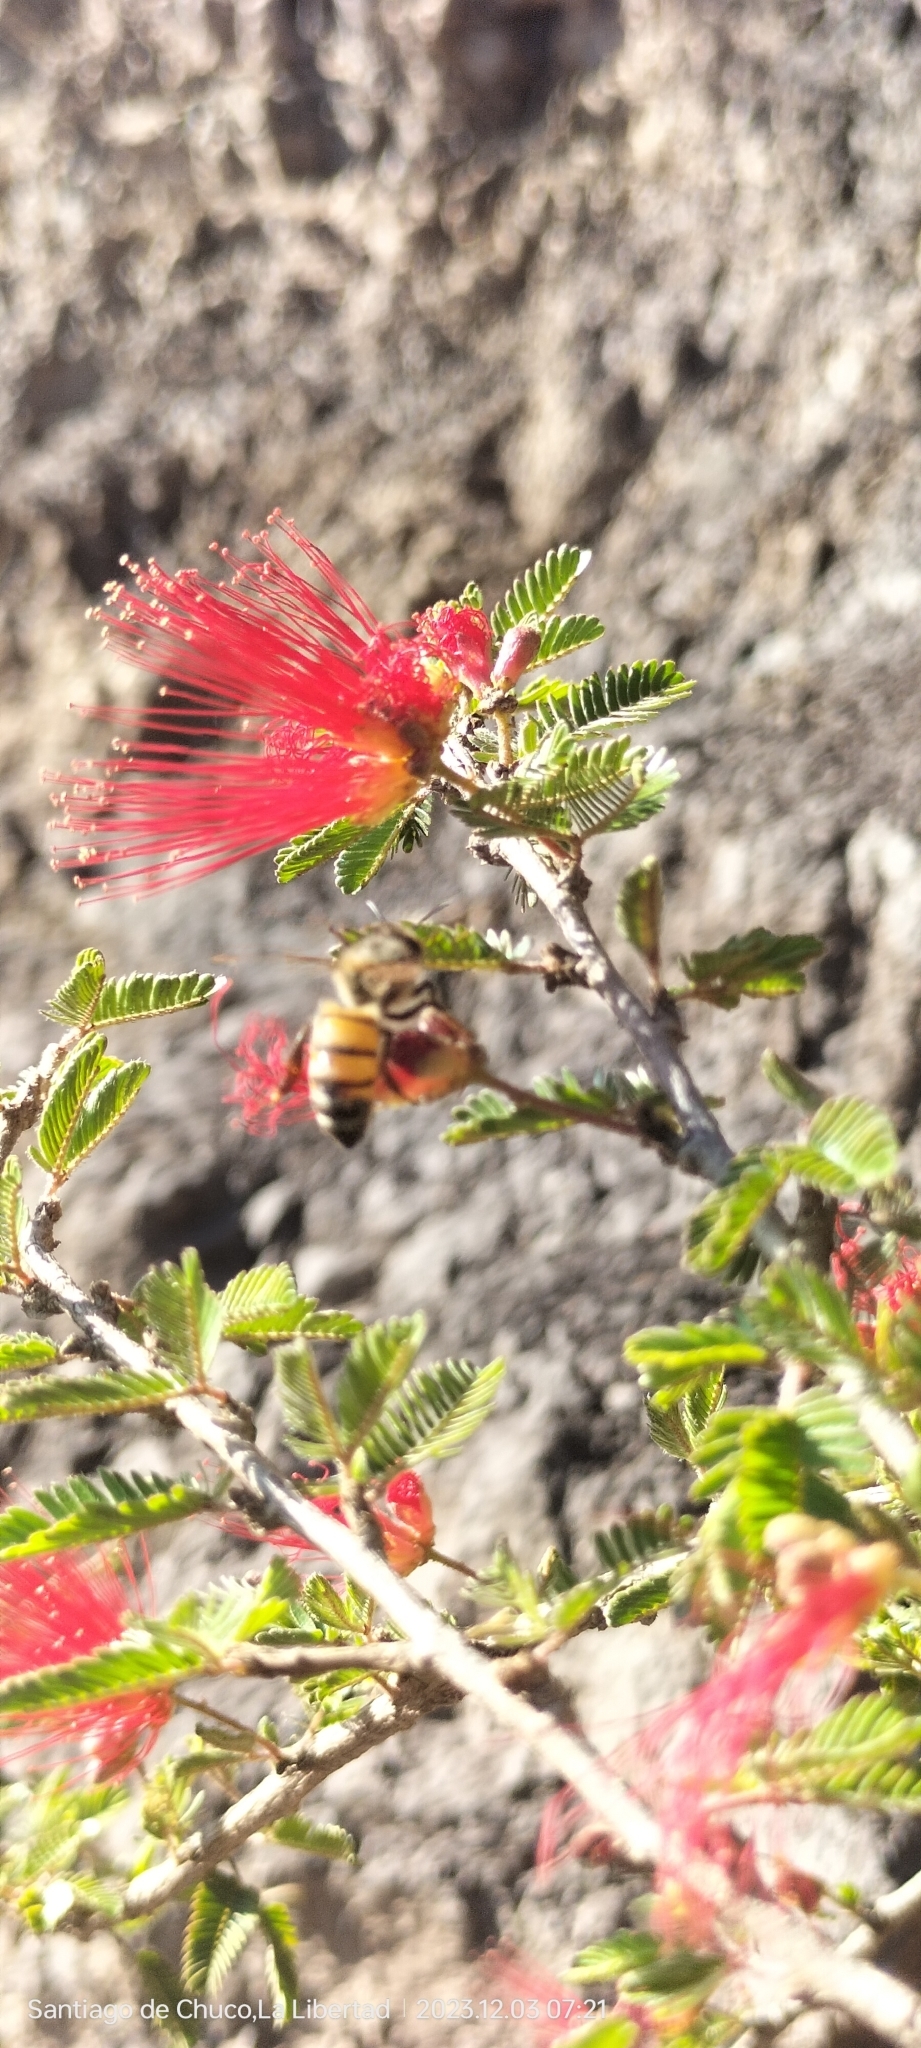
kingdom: Animalia
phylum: Arthropoda
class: Insecta
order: Hymenoptera
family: Apidae
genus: Apis
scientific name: Apis mellifera
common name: Honey bee
